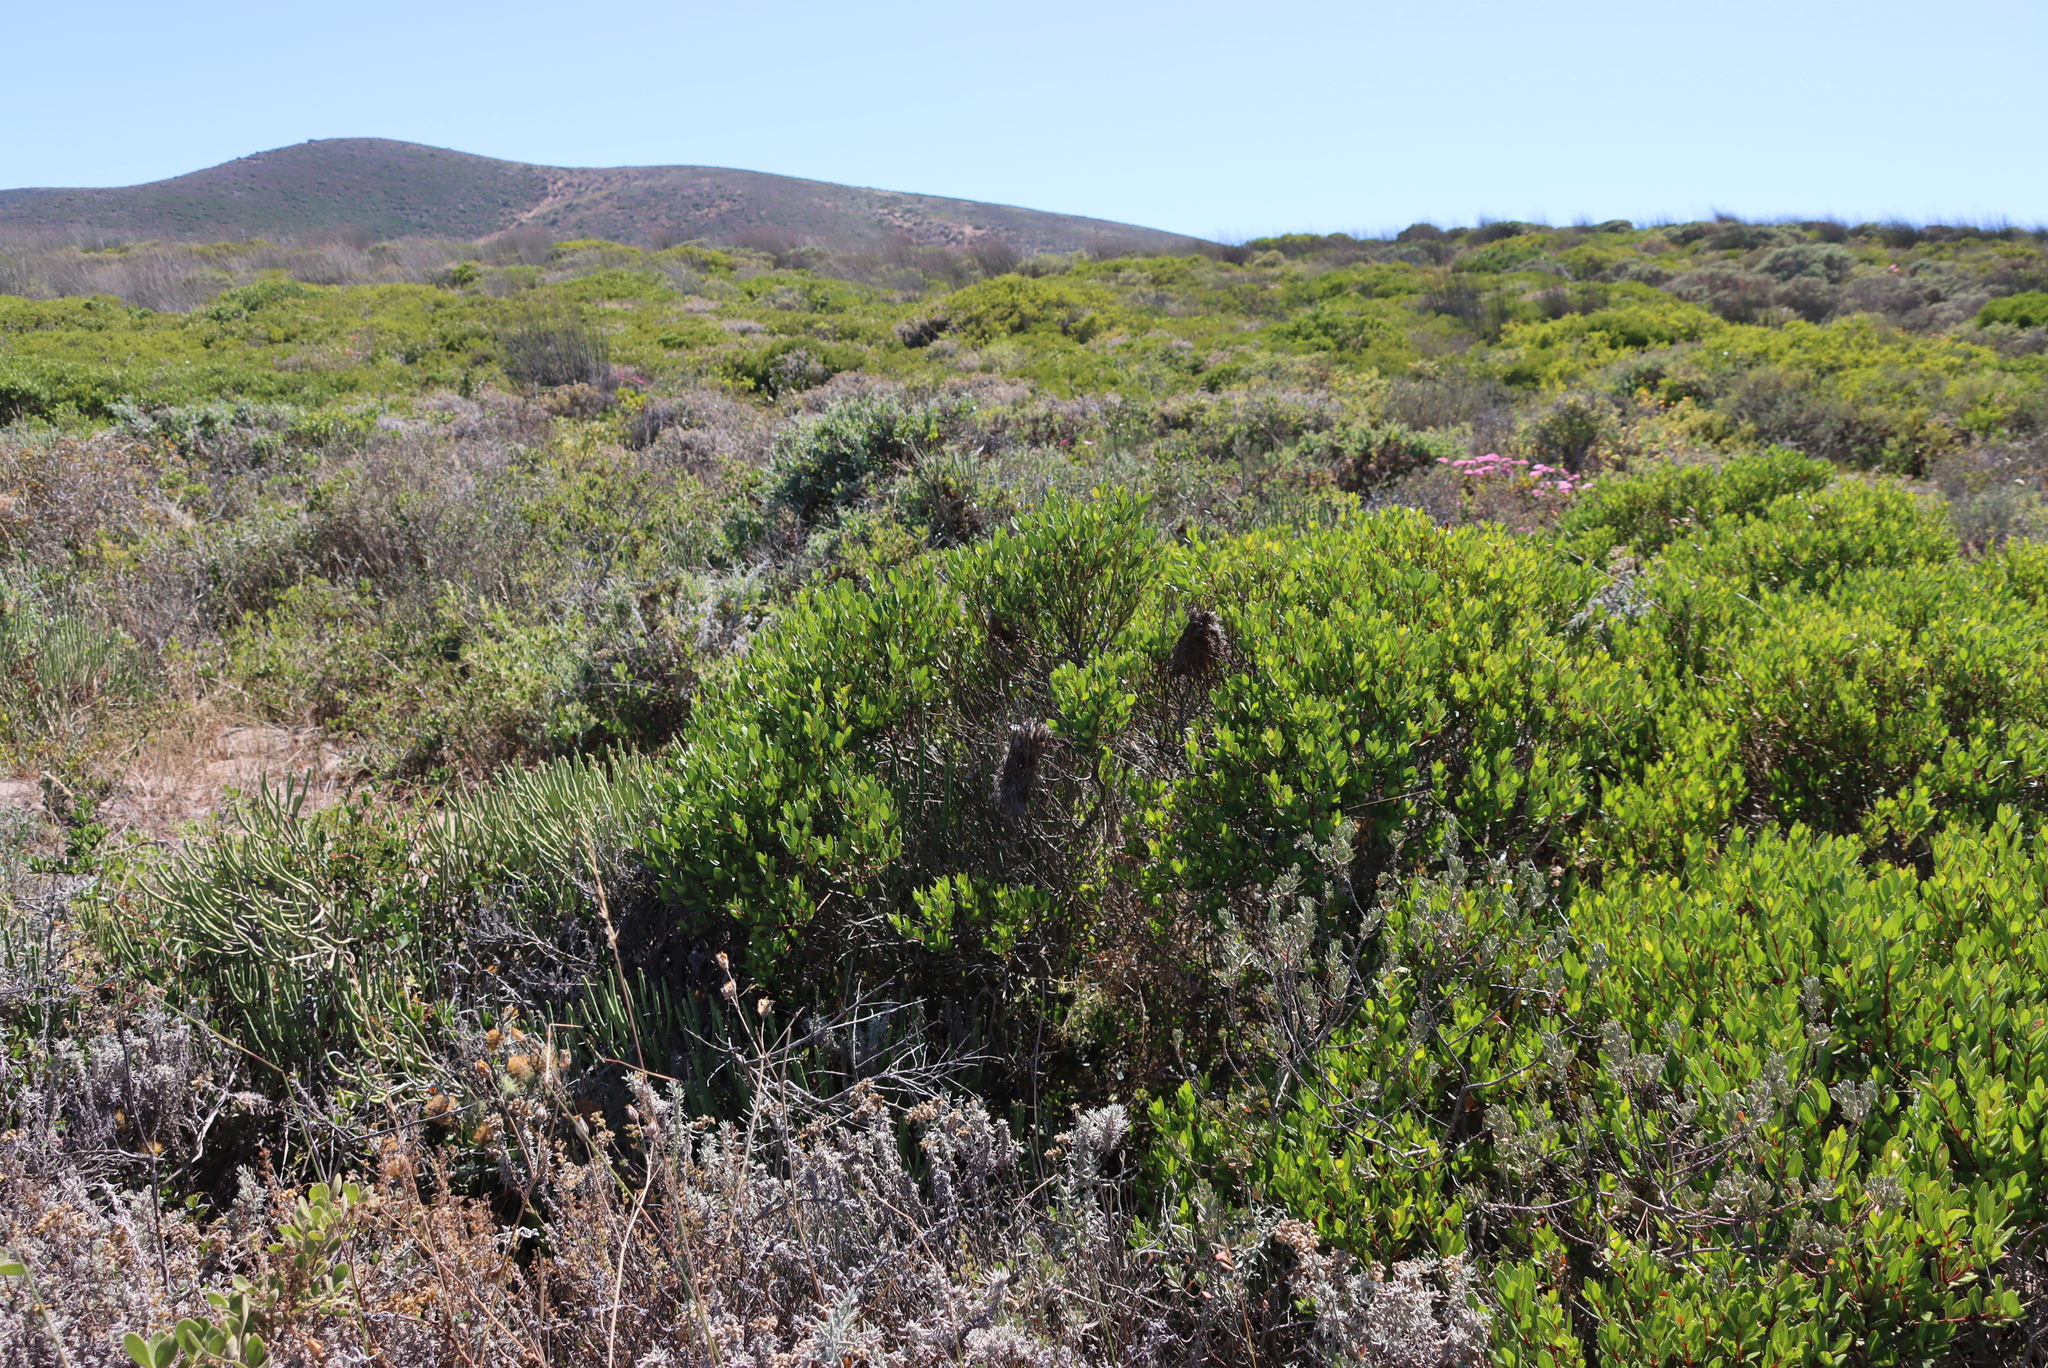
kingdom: Plantae
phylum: Tracheophyta
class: Magnoliopsida
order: Ericales
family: Ebenaceae
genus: Euclea
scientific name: Euclea racemosa
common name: Dune guarri
